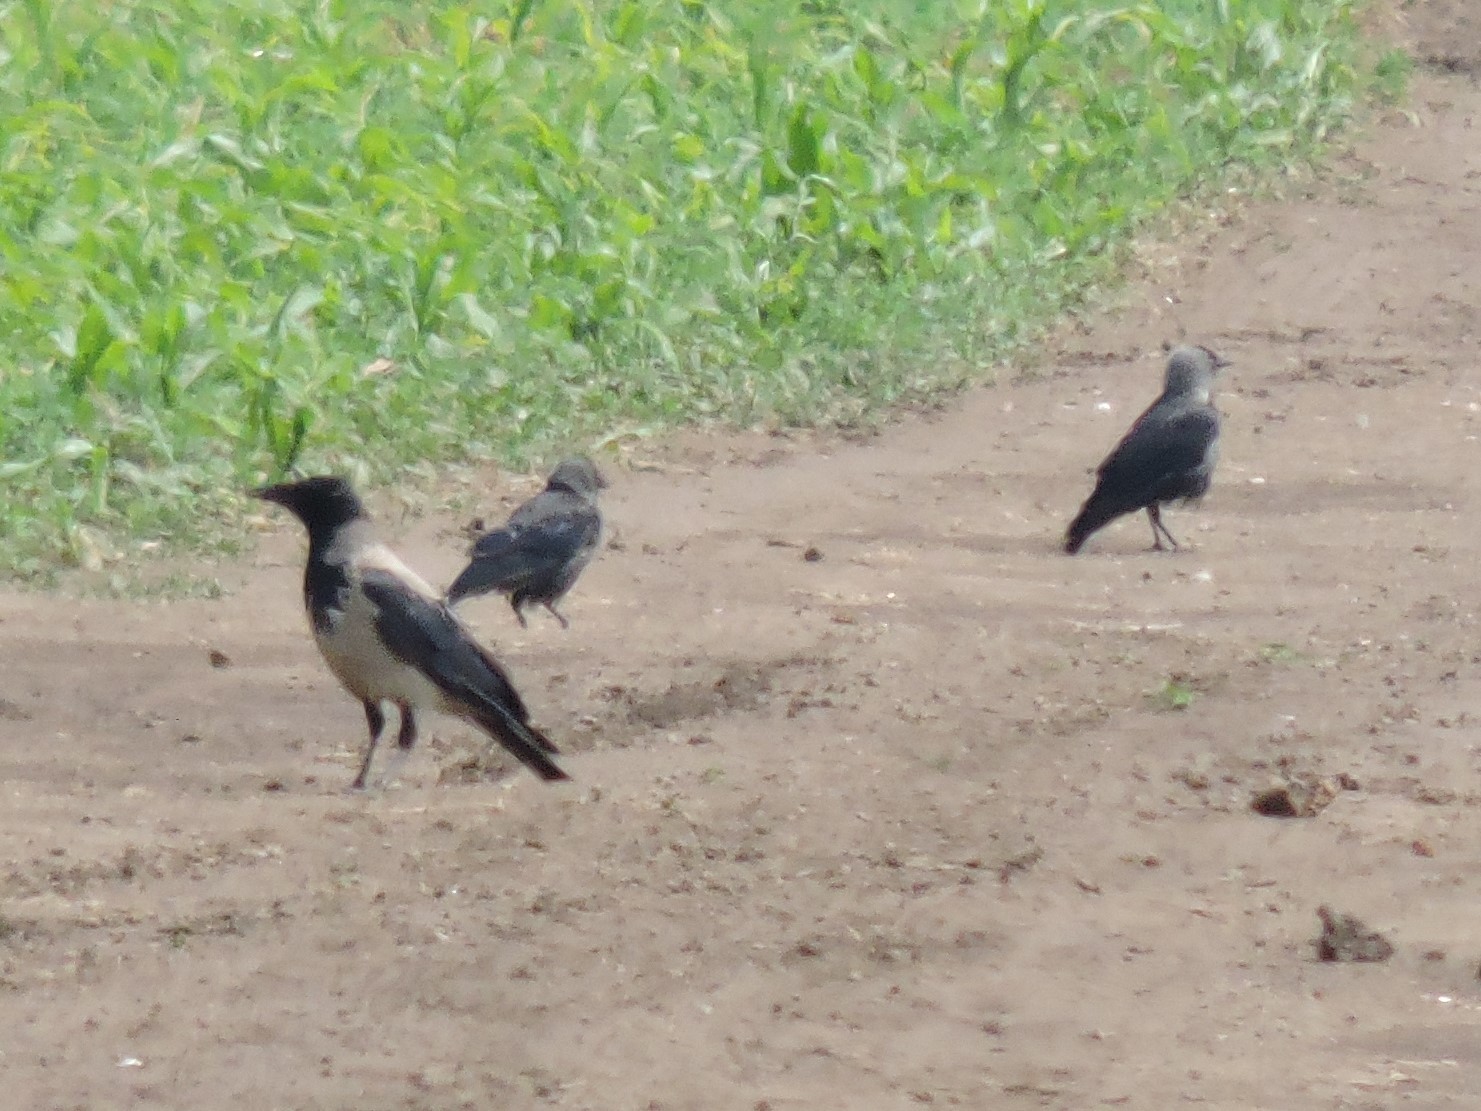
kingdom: Animalia
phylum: Chordata
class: Aves
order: Passeriformes
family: Corvidae
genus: Corvus
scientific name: Corvus cornix
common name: Hooded crow
